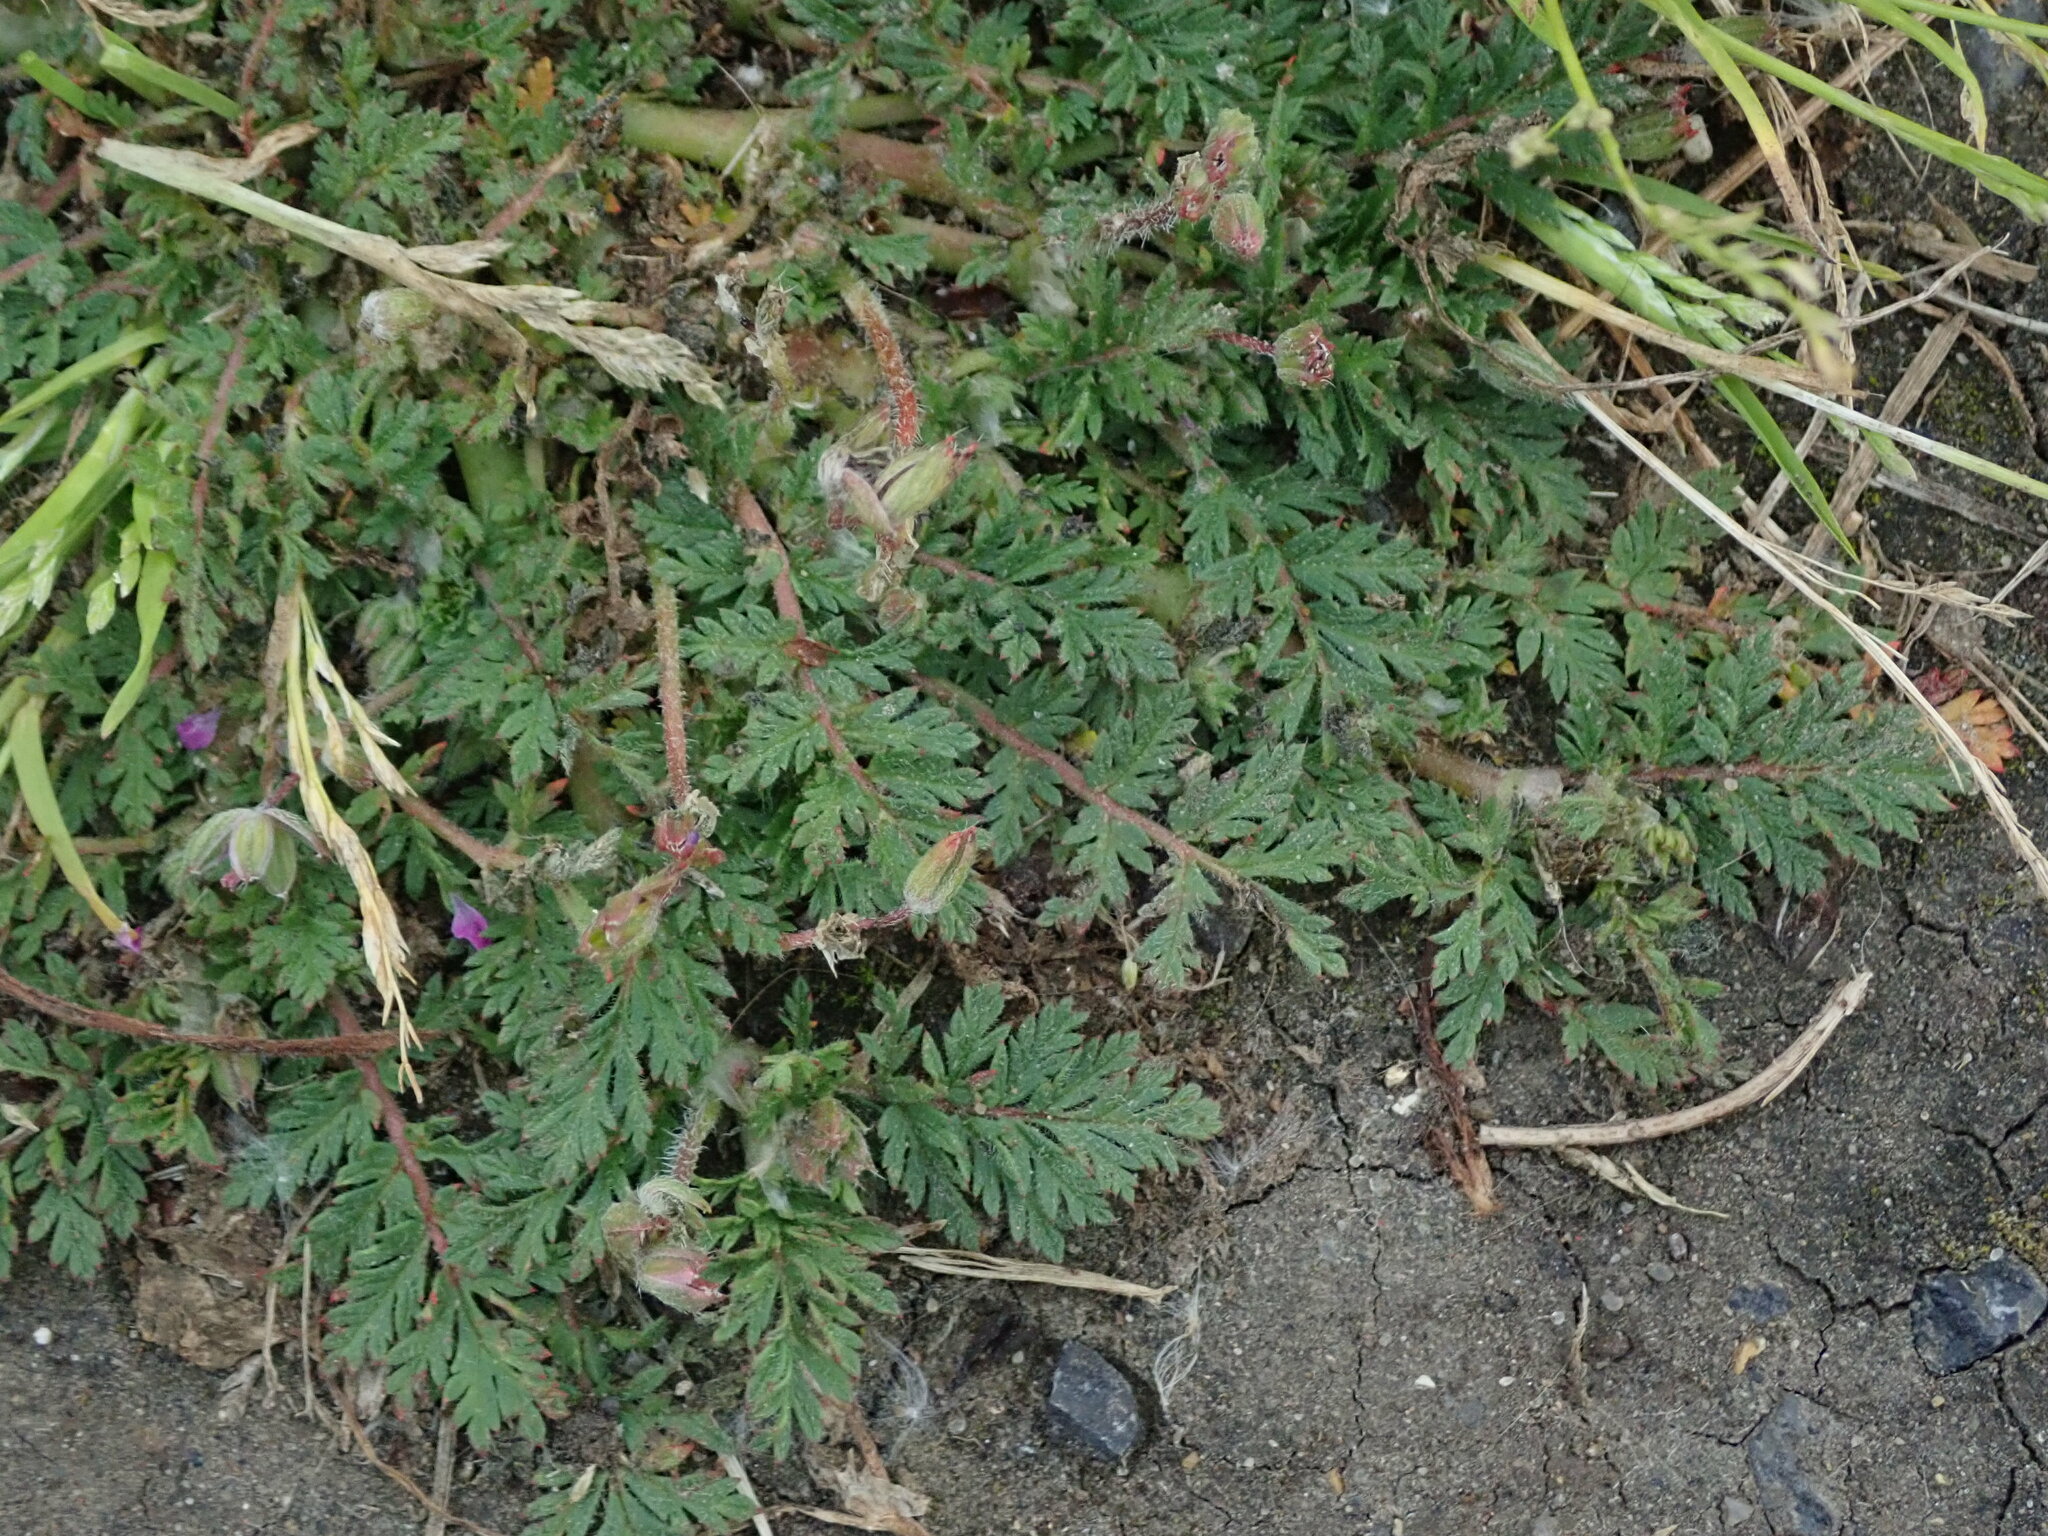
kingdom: Plantae
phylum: Tracheophyta
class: Magnoliopsida
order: Geraniales
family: Geraniaceae
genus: Erodium
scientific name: Erodium cicutarium
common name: Common stork's-bill
